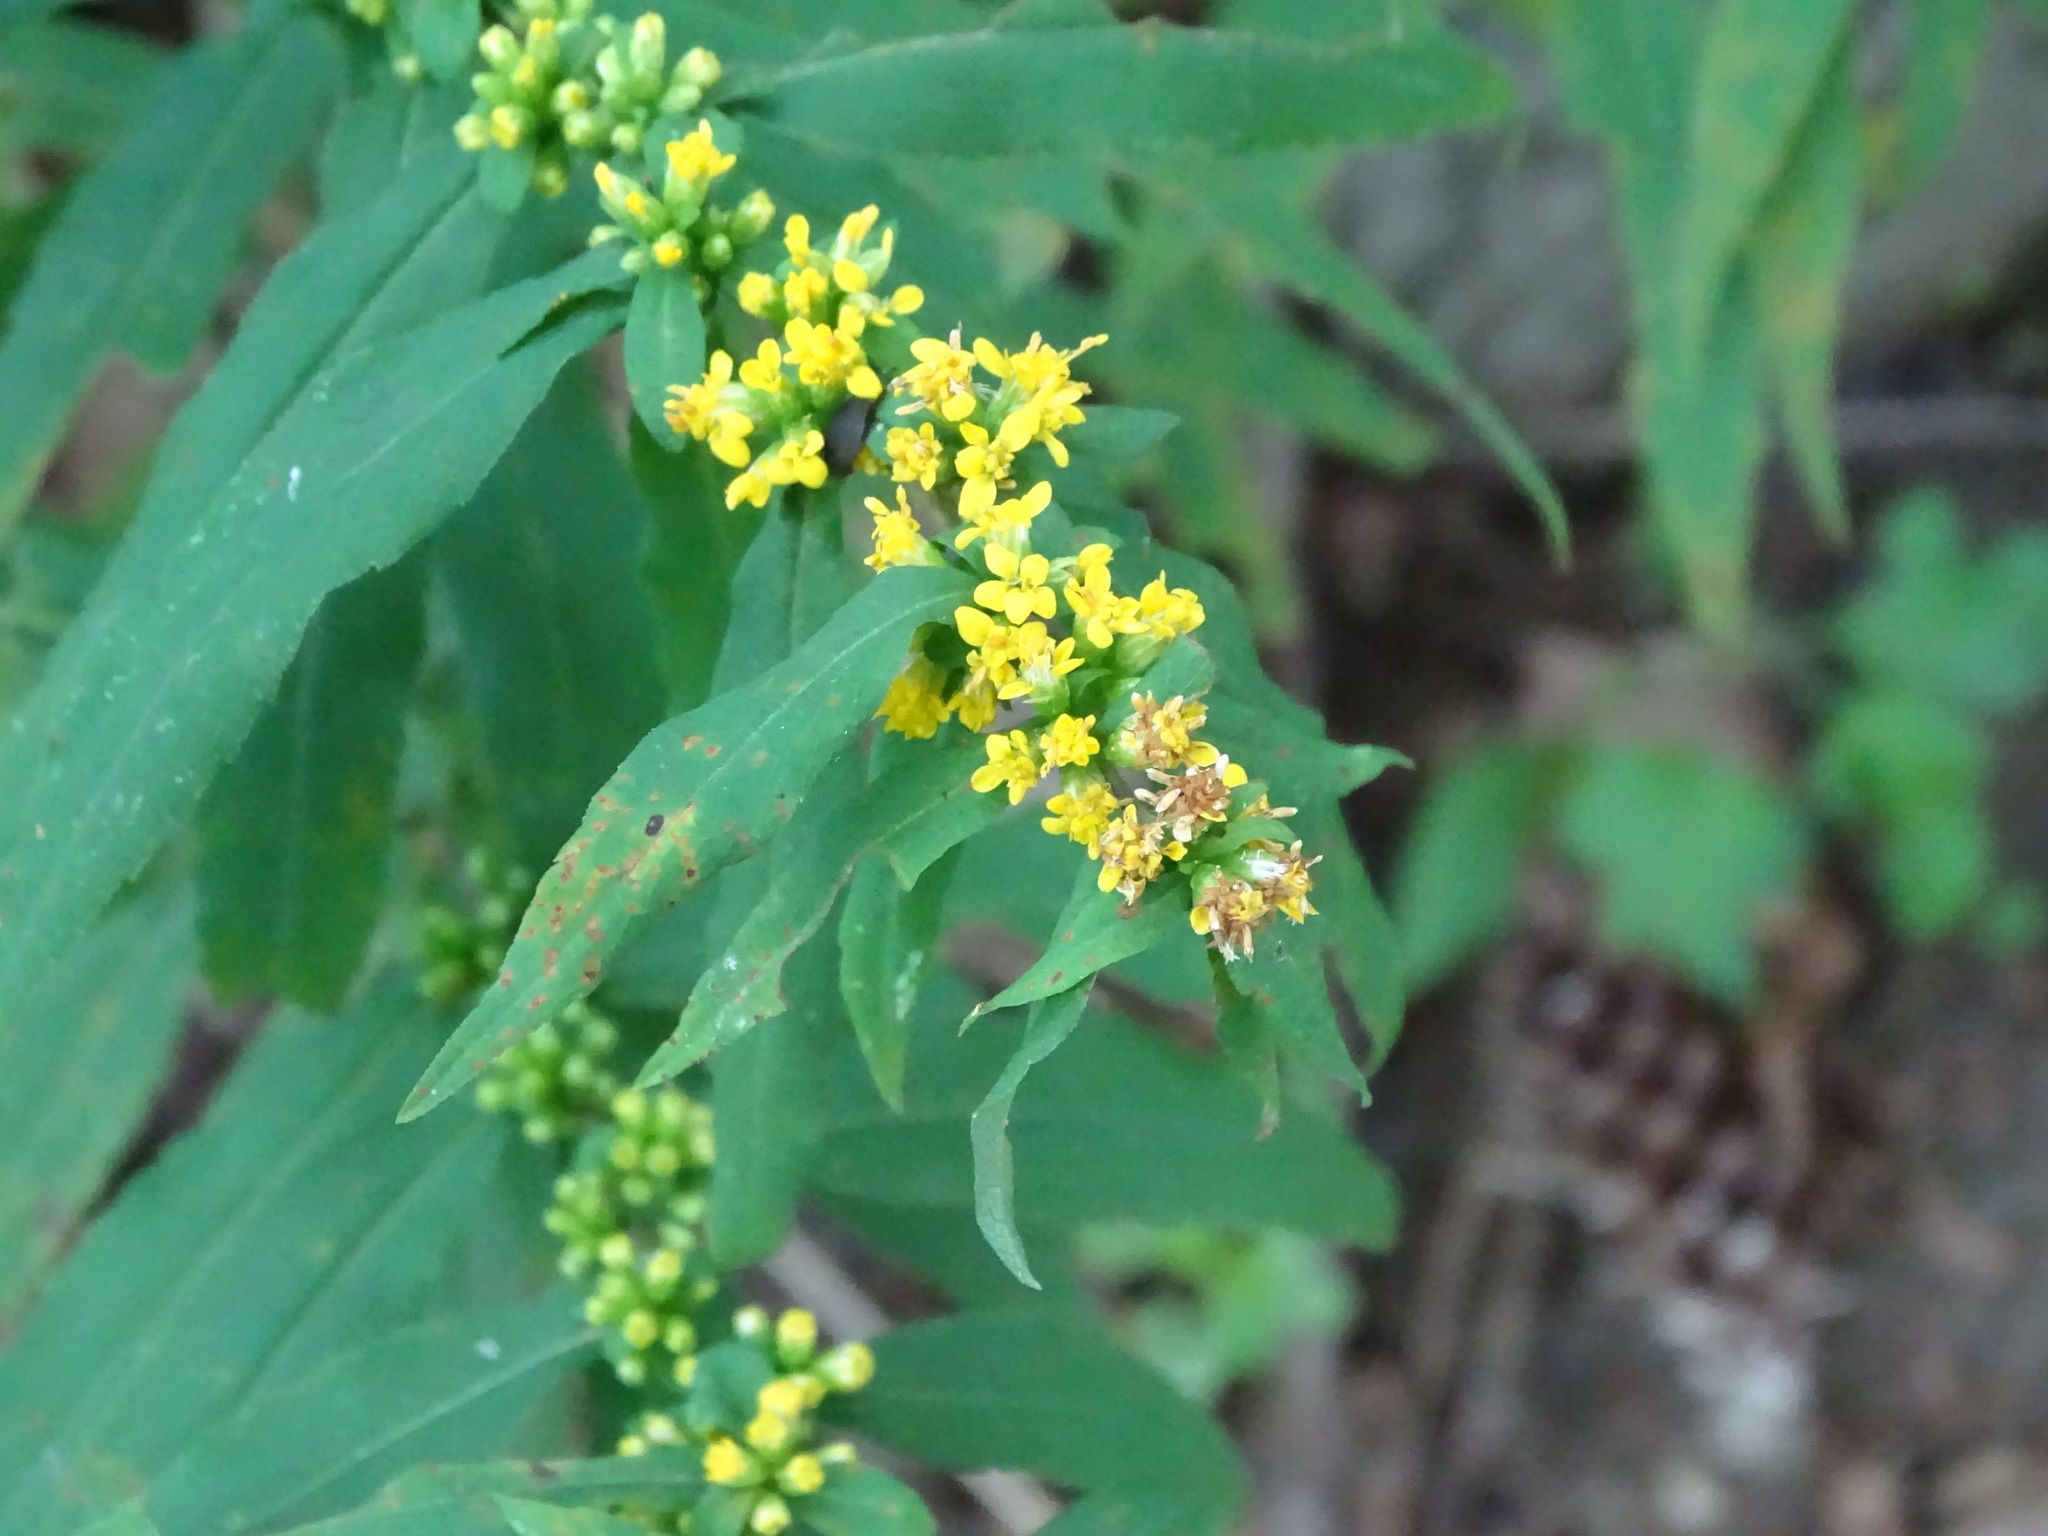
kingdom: Plantae
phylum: Tracheophyta
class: Magnoliopsida
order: Asterales
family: Asteraceae
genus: Solidago
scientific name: Solidago caesia
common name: Woodland goldenrod
